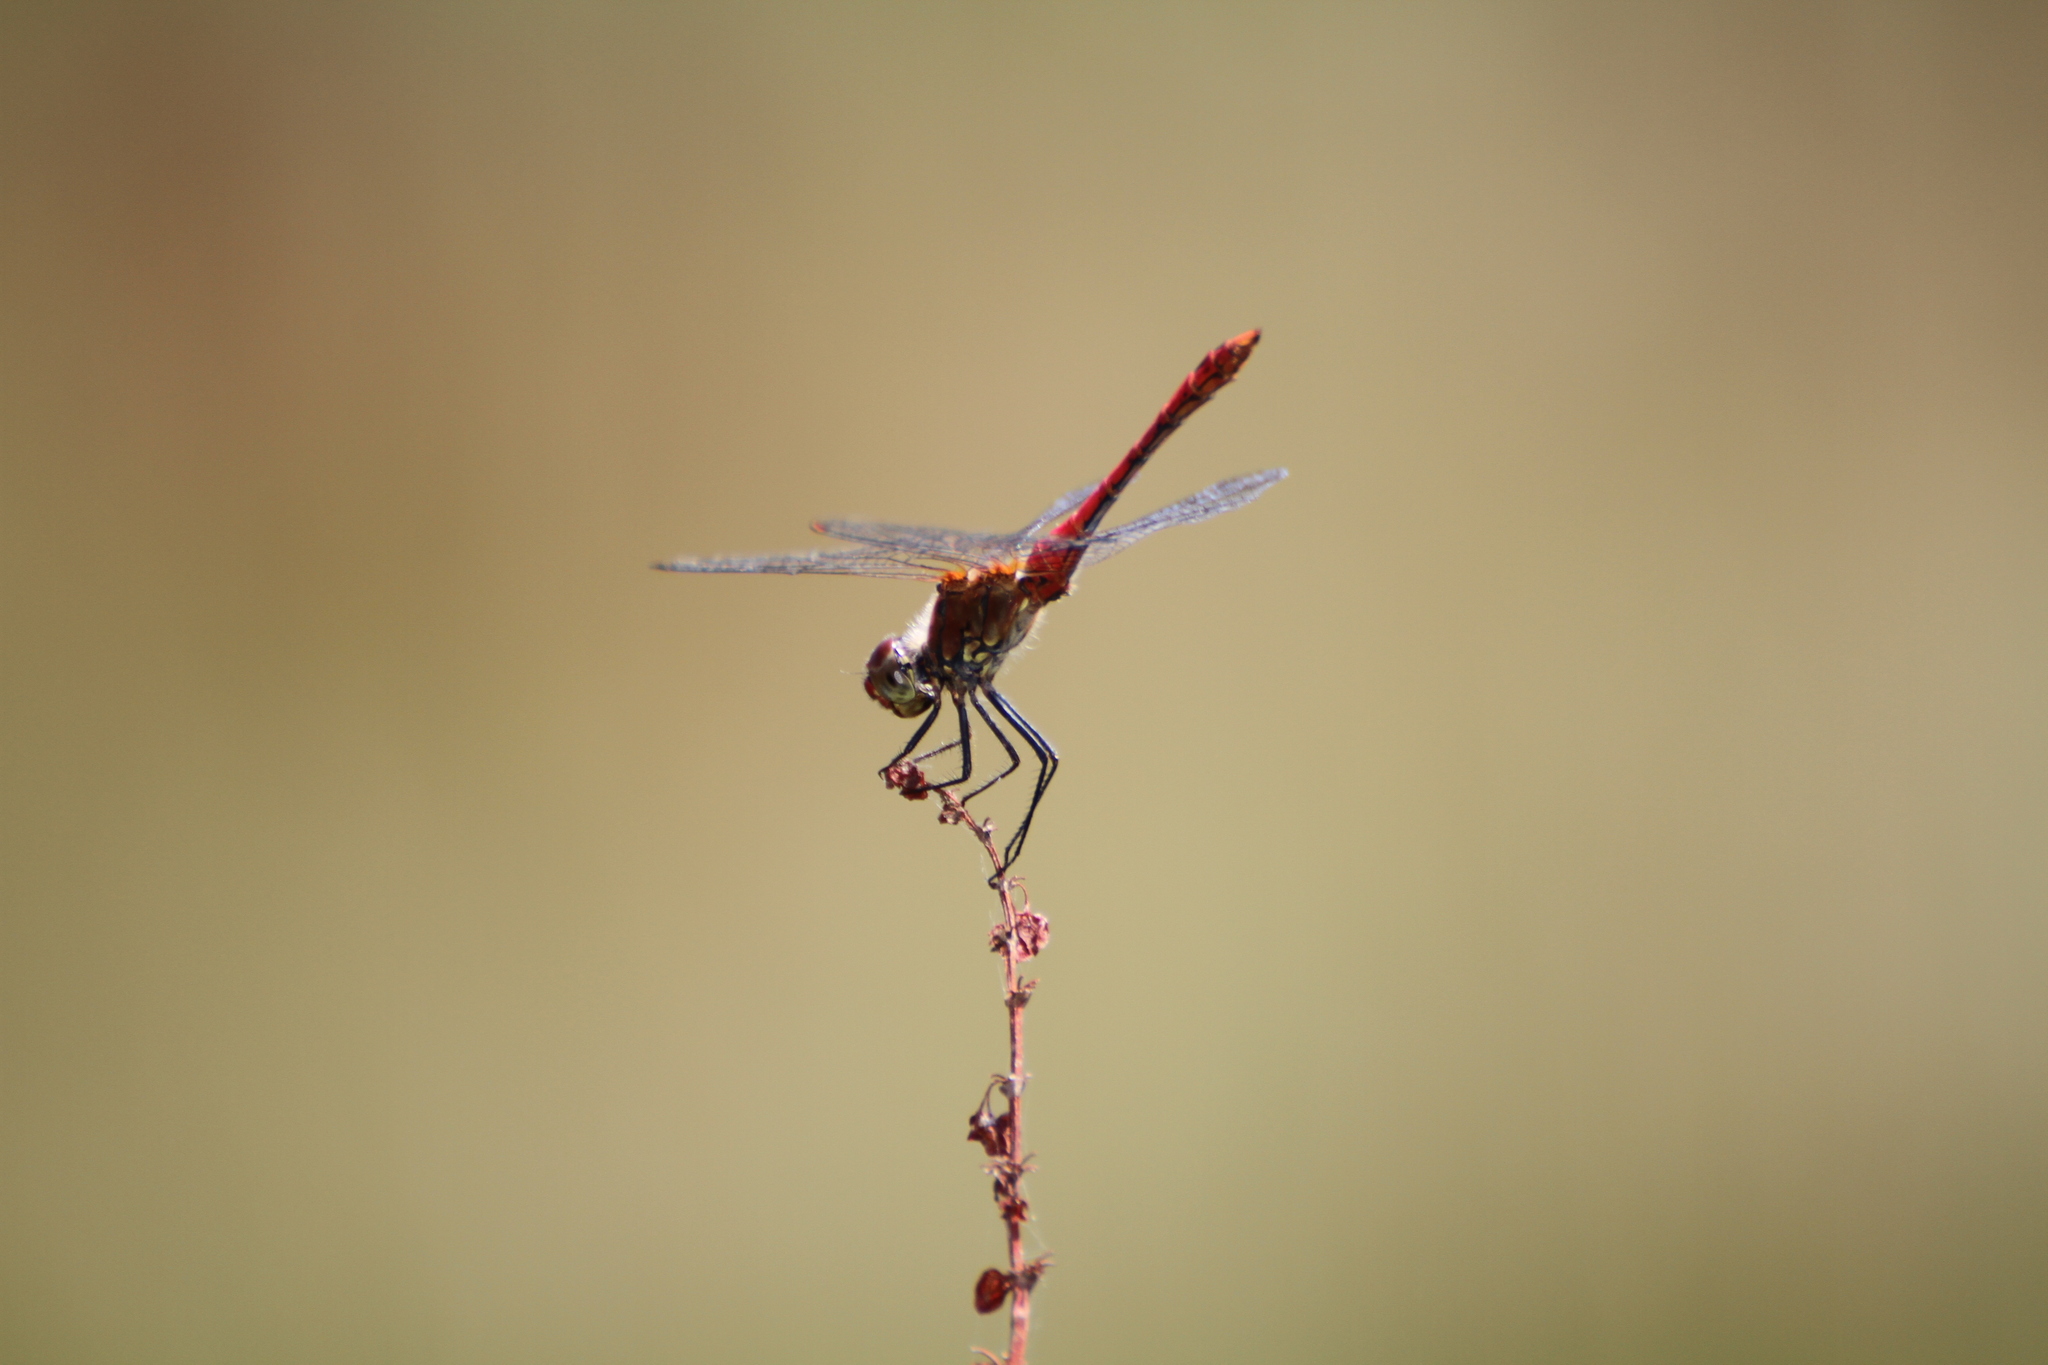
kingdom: Animalia
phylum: Arthropoda
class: Insecta
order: Odonata
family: Libellulidae
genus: Sympetrum
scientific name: Sympetrum sanguineum
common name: Ruddy darter
